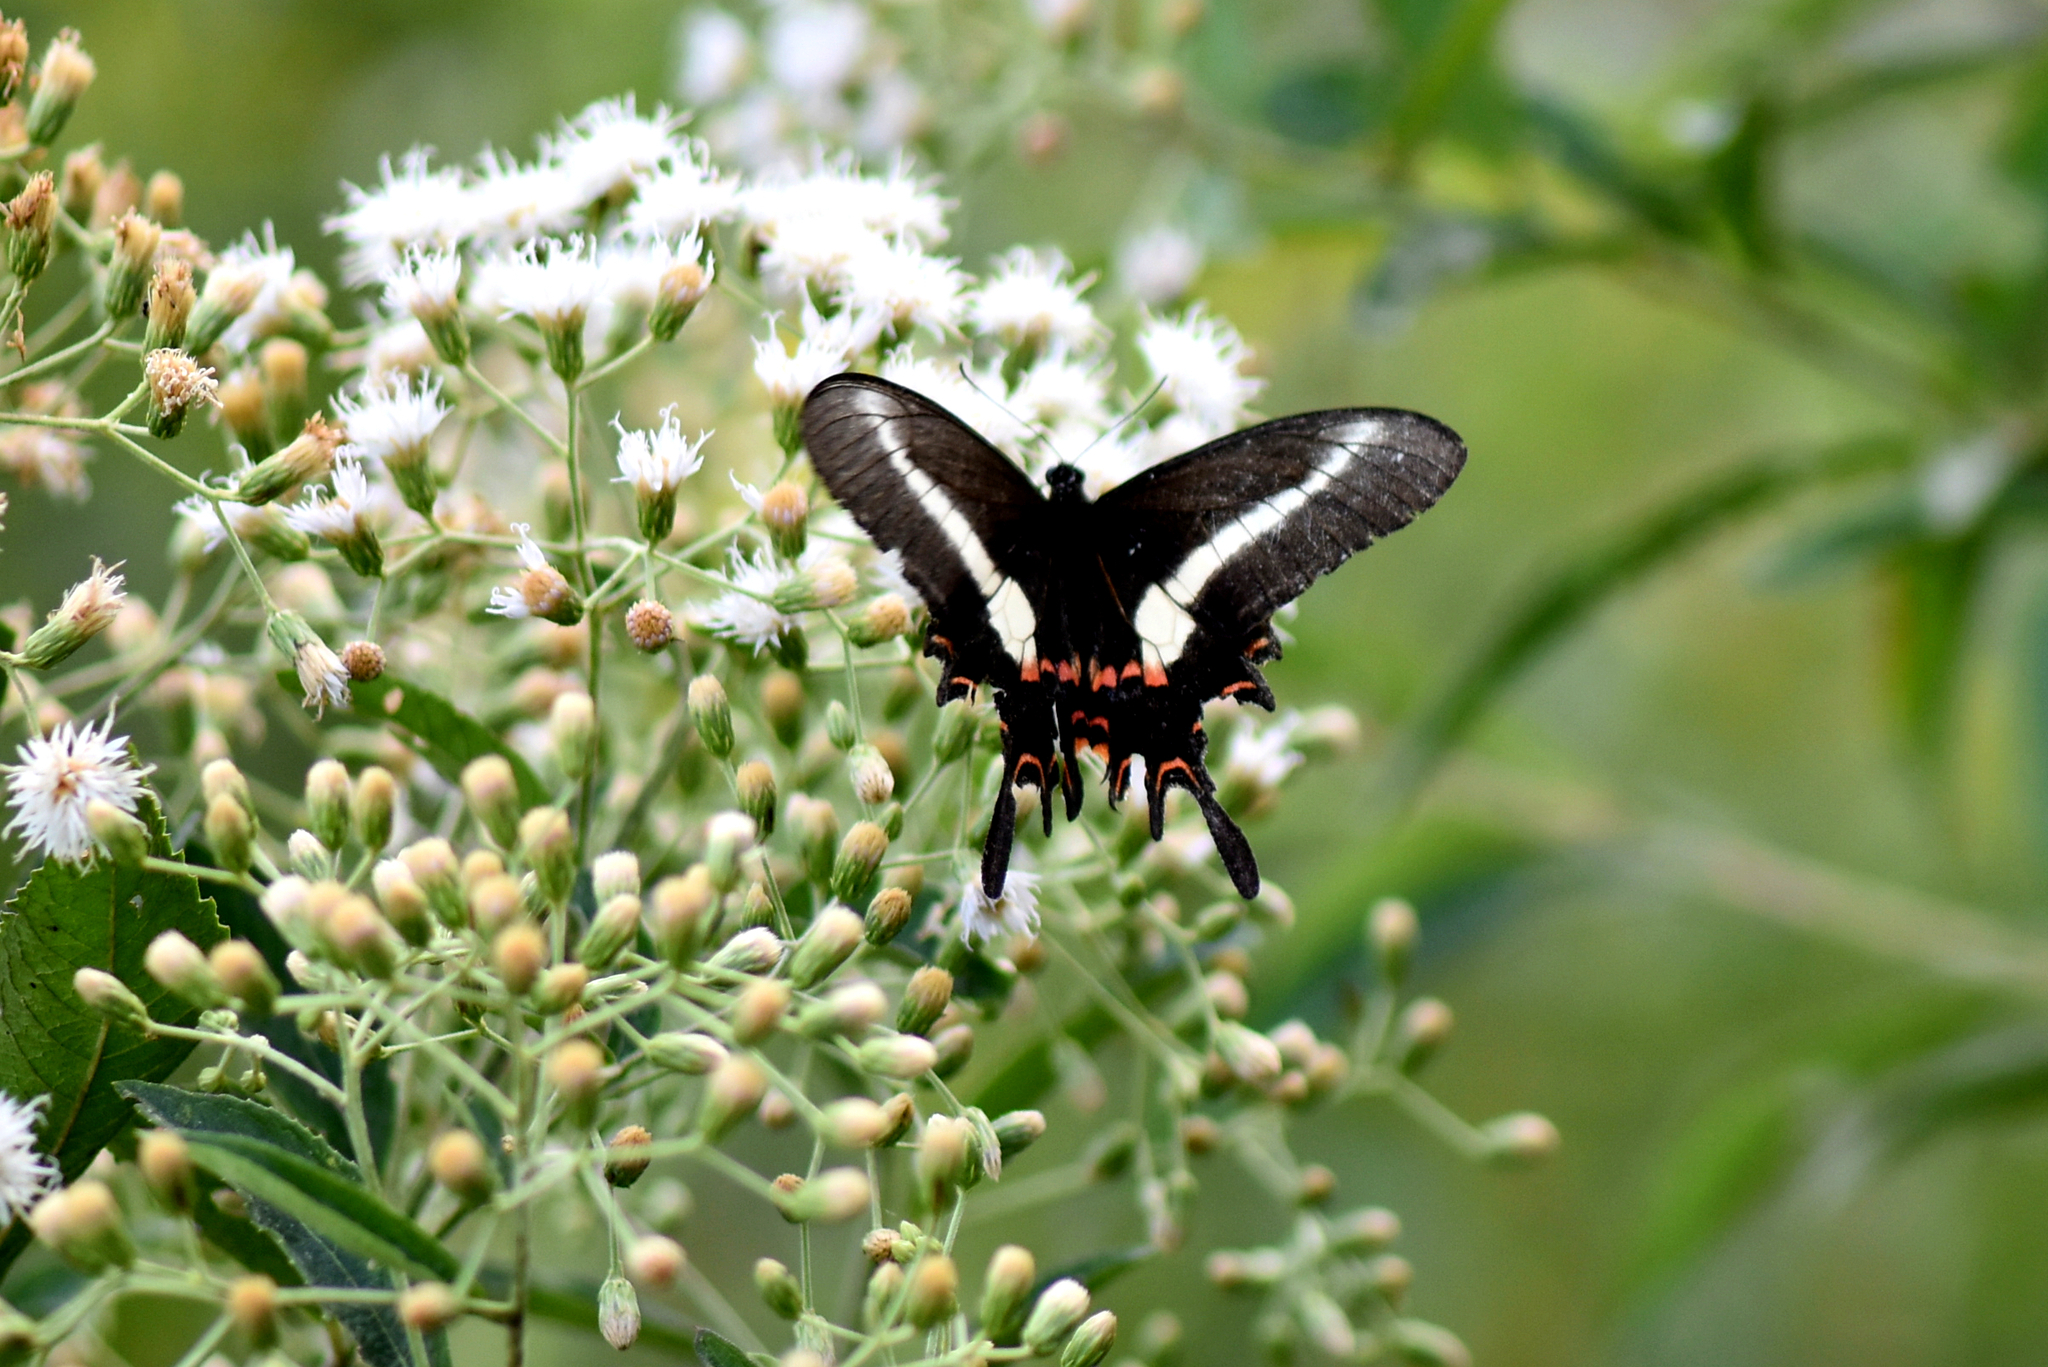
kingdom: Animalia
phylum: Arthropoda
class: Insecta
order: Lepidoptera
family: Papilionidae
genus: Heraclides
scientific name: Heraclides hectorides
